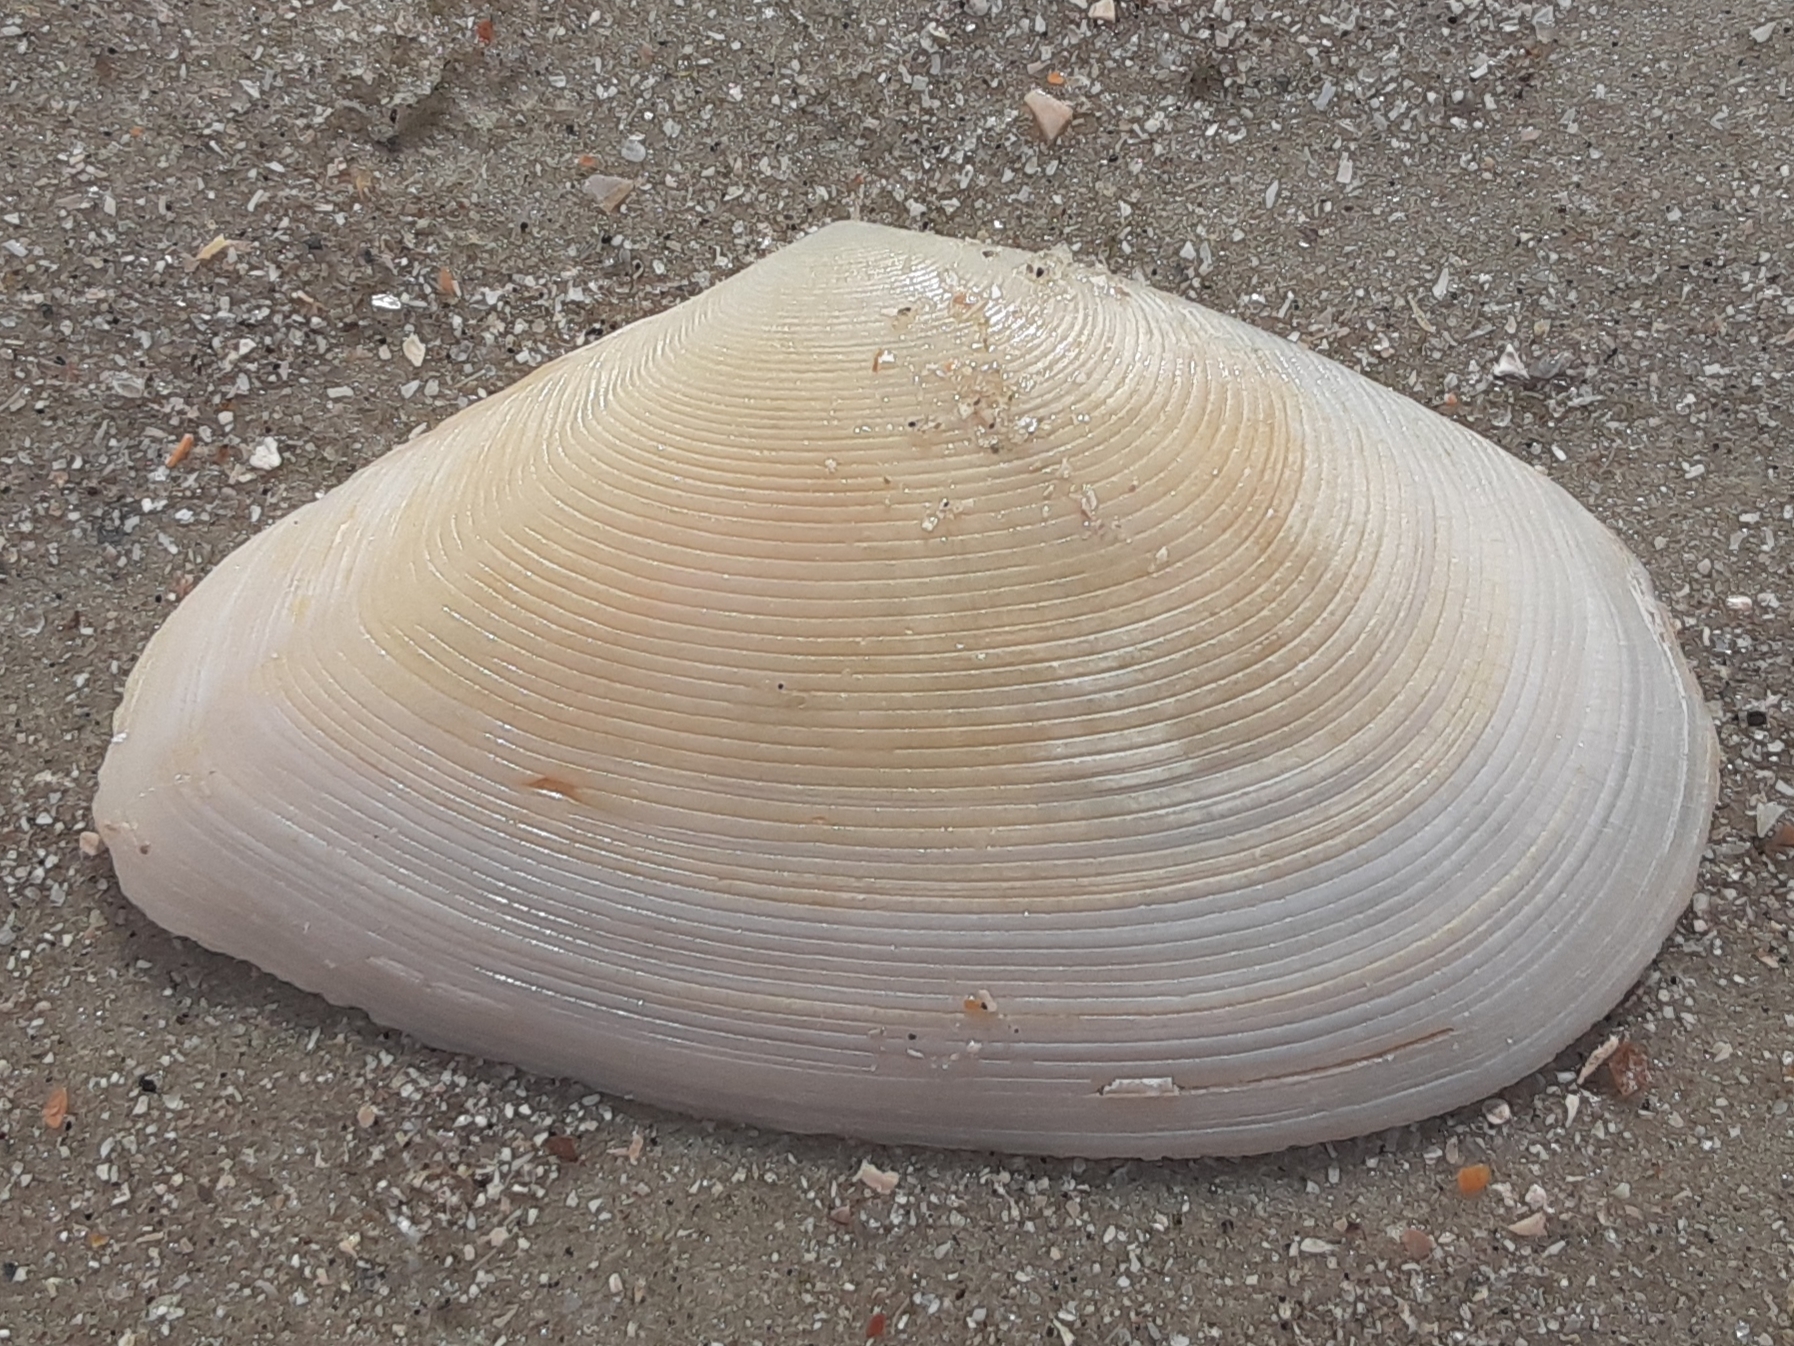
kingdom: Animalia
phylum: Mollusca
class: Bivalvia
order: Cardiida
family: Tellinidae
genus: Eurytellina
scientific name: Eurytellina alternata
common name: Alternate tellin
